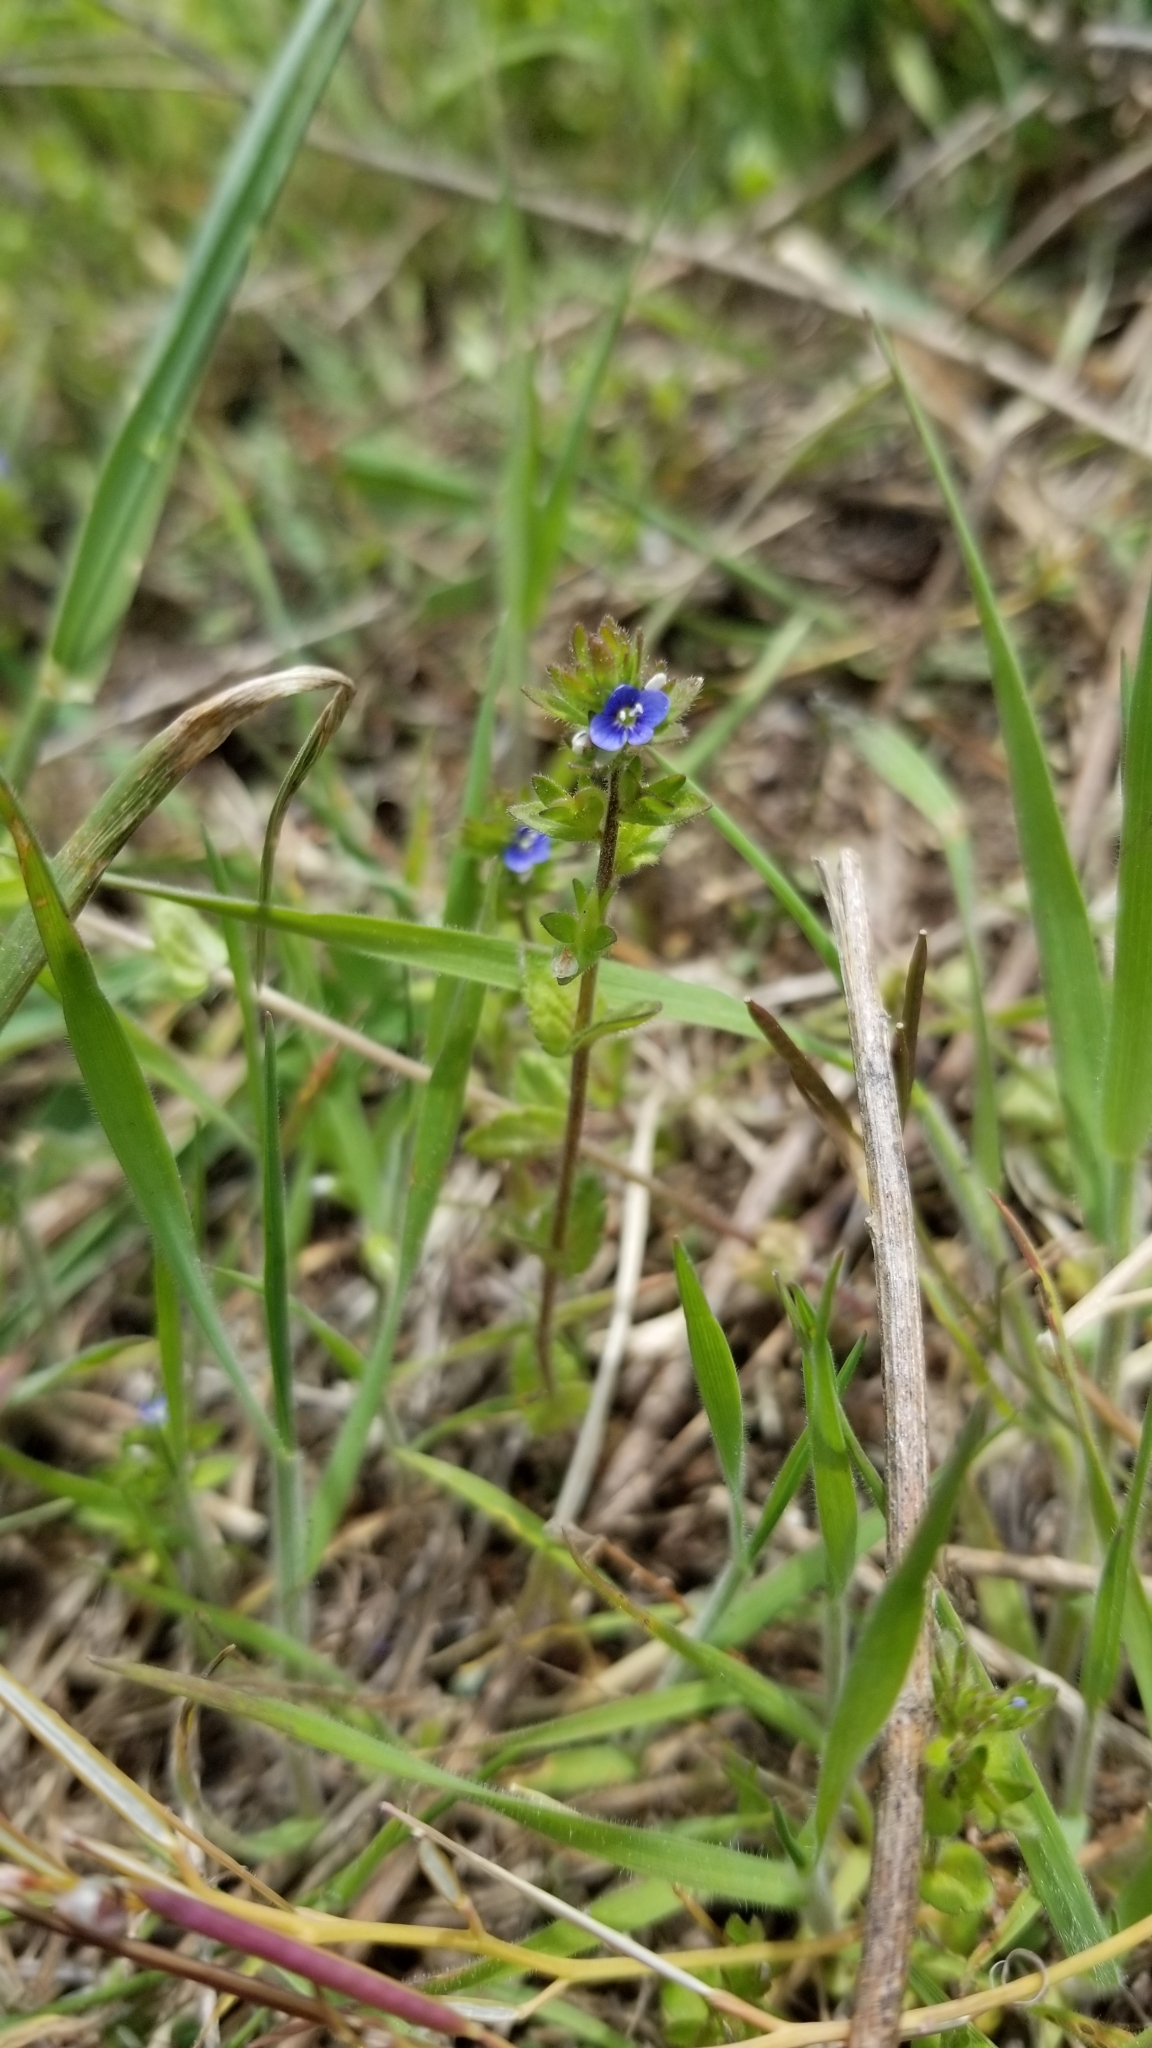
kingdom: Plantae
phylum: Tracheophyta
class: Magnoliopsida
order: Lamiales
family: Plantaginaceae
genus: Veronica
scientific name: Veronica arvensis
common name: Corn speedwell
